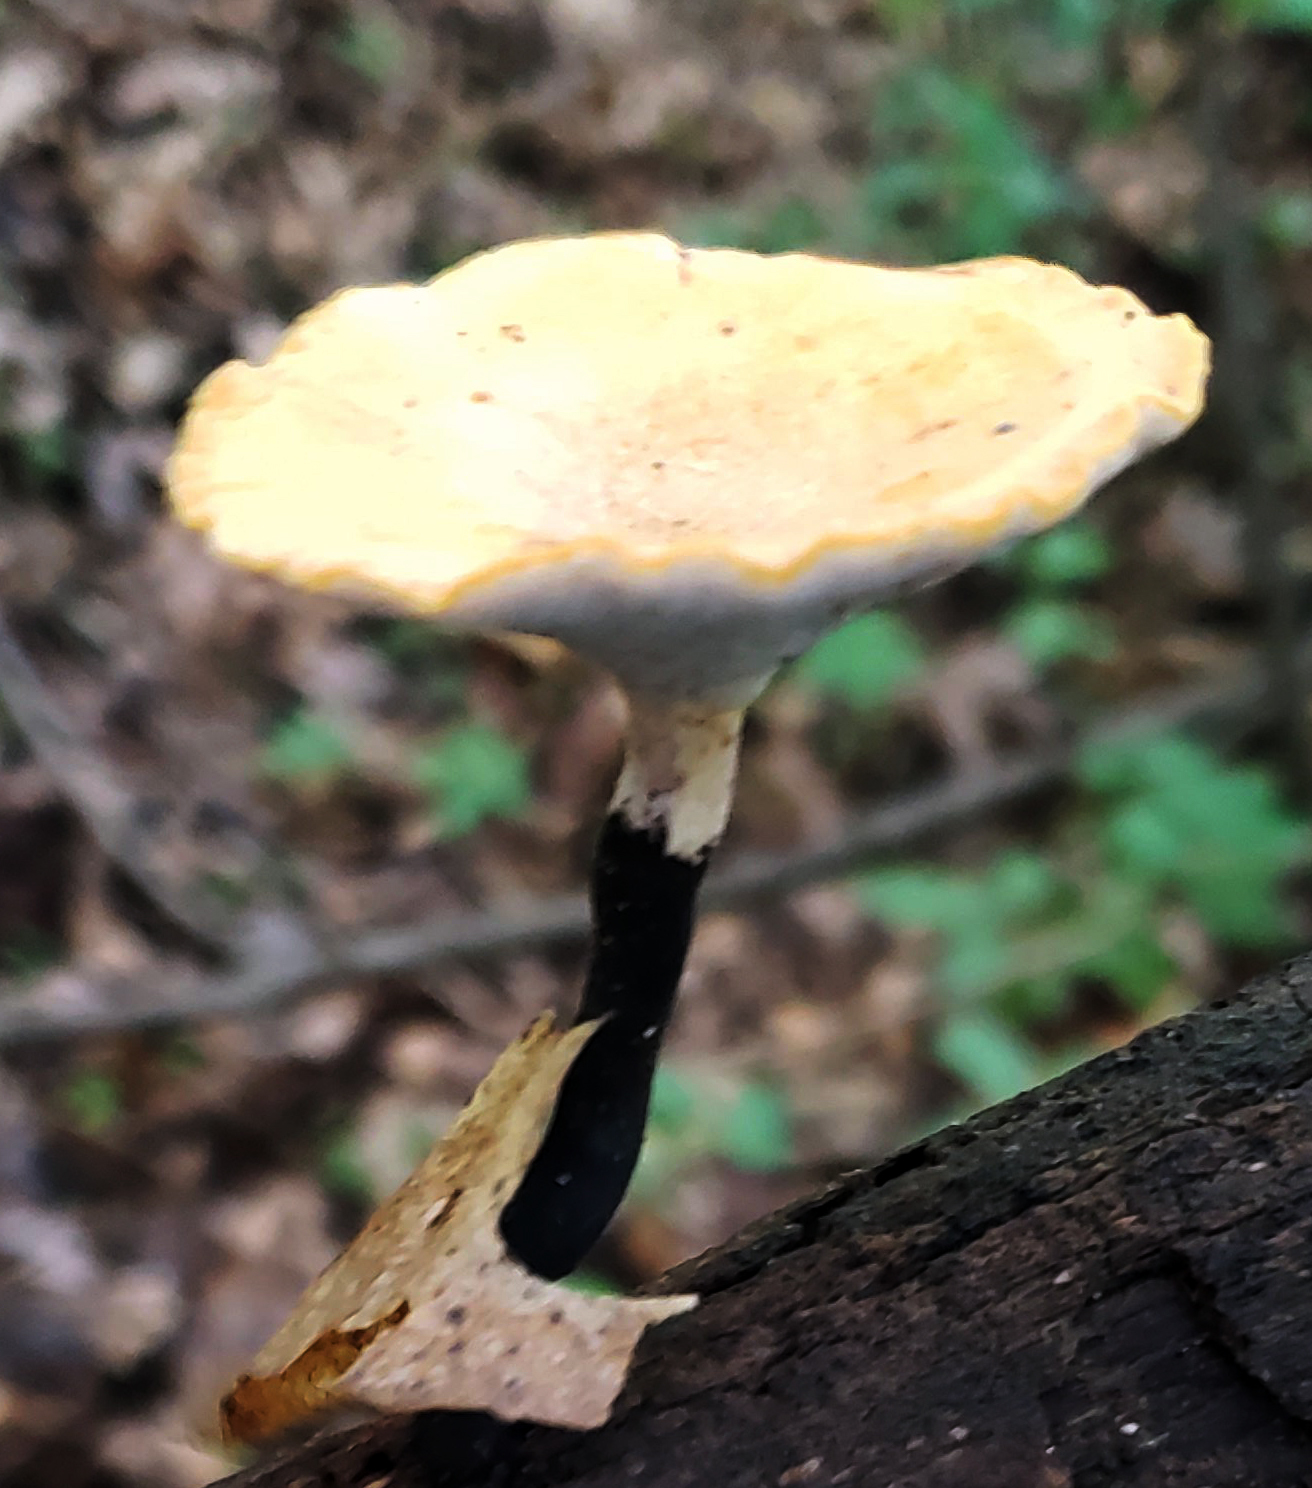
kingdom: Fungi
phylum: Basidiomycota
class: Agaricomycetes
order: Polyporales
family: Polyporaceae
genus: Cerioporus
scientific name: Cerioporus varius
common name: Elegant polypore
